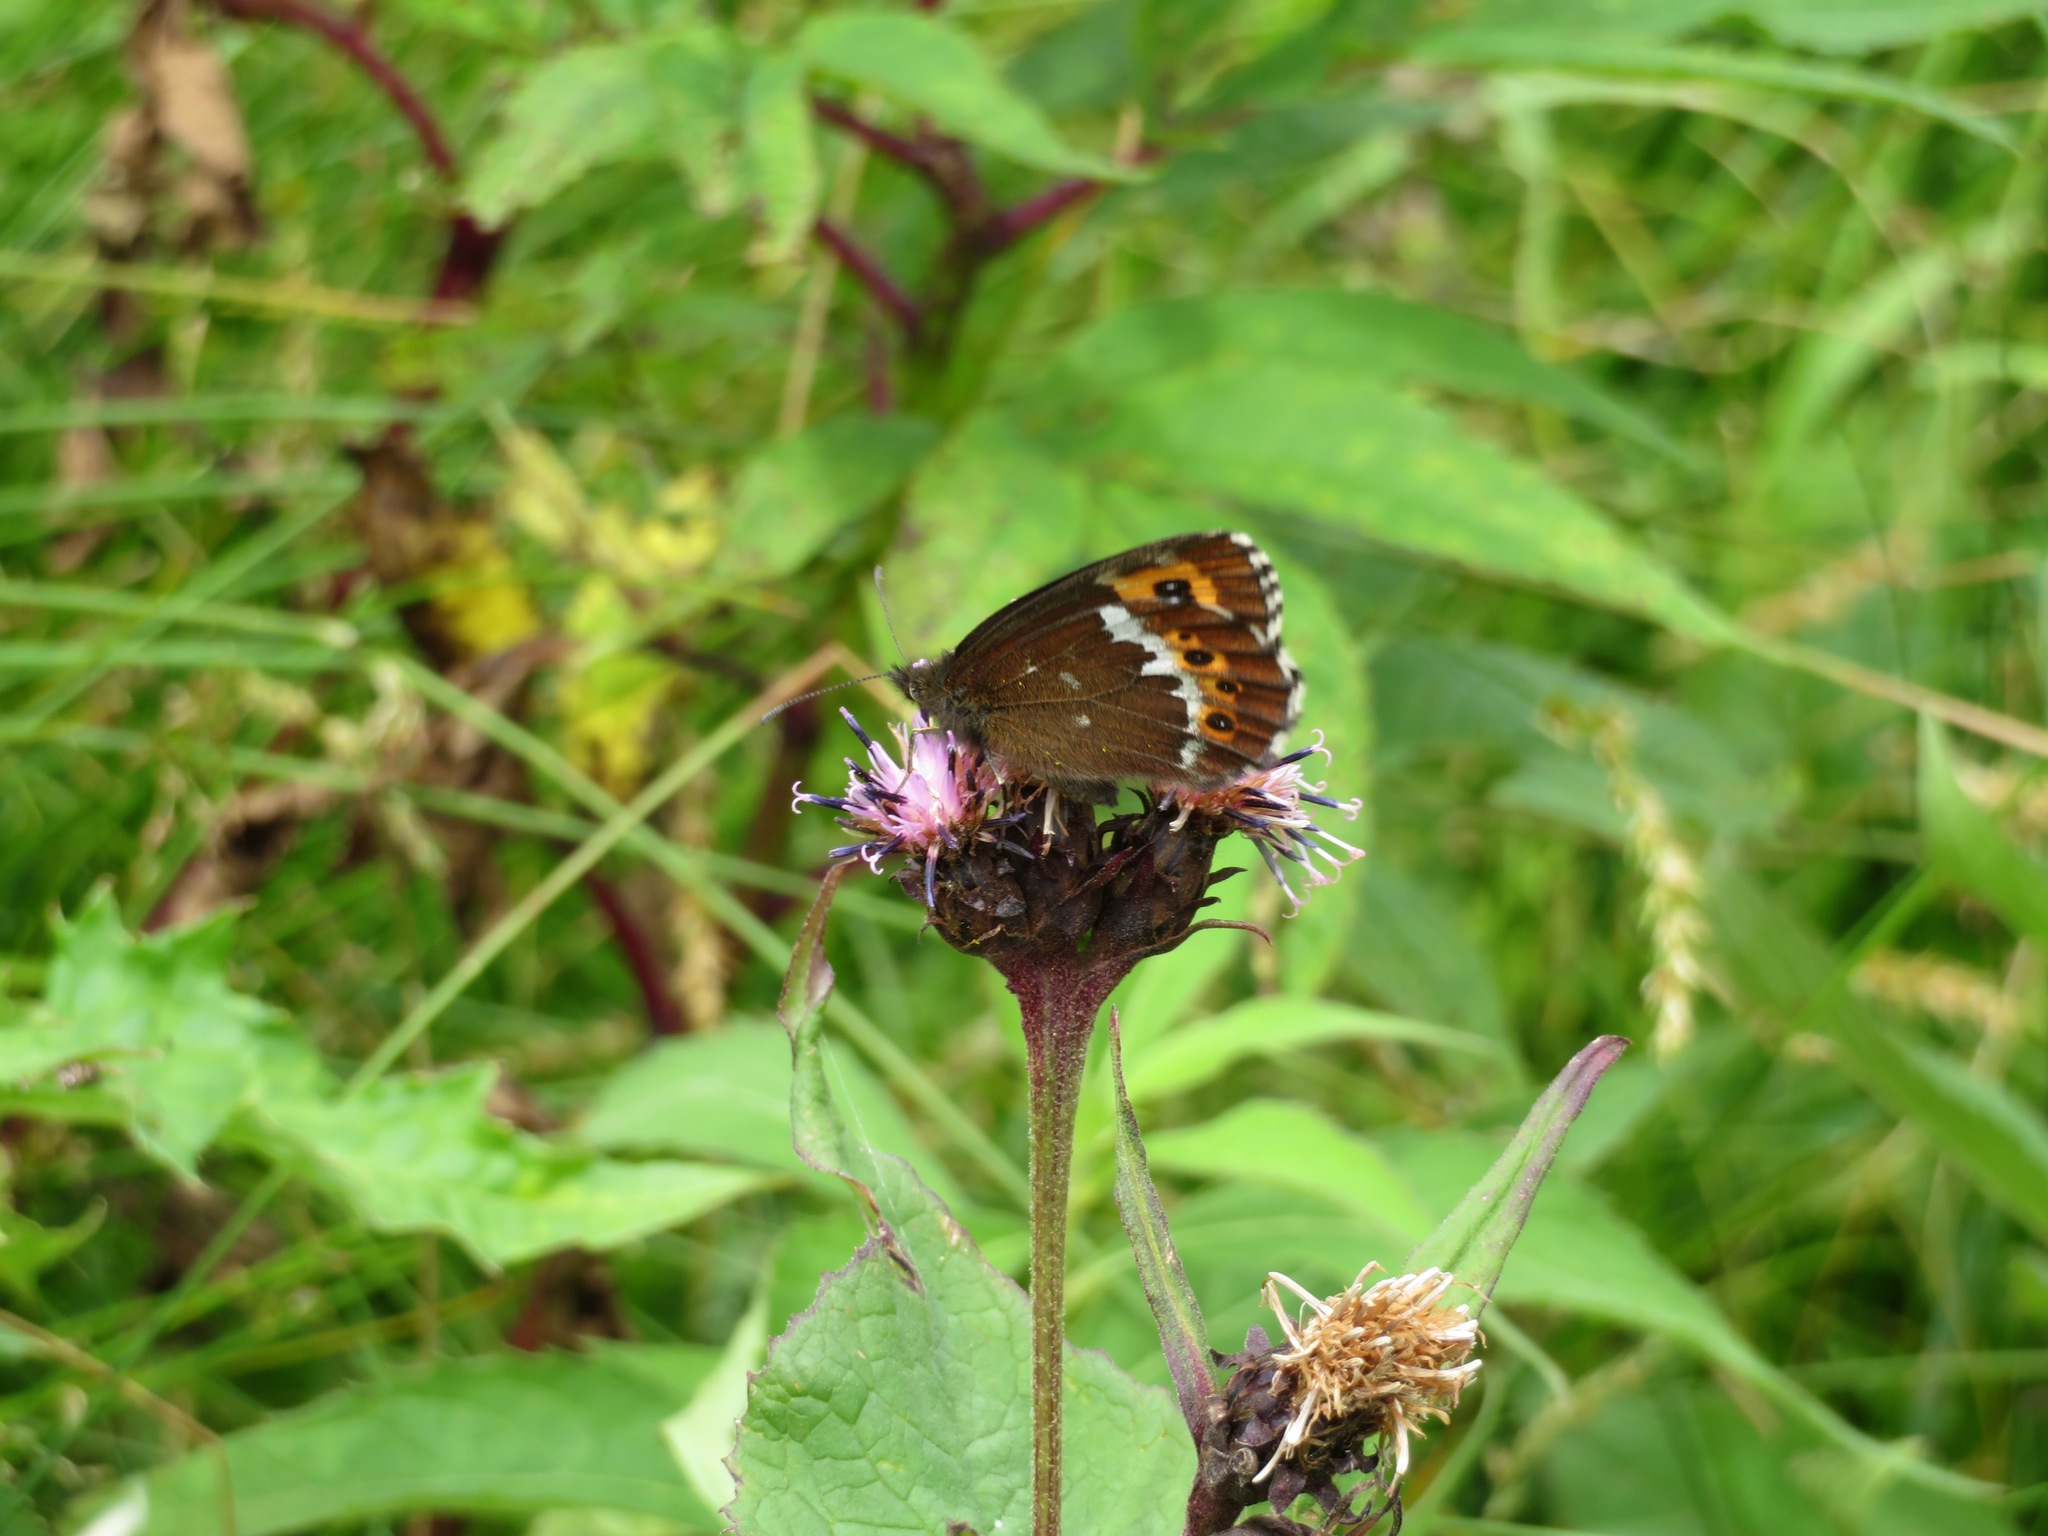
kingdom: Animalia
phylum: Arthropoda
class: Insecta
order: Lepidoptera
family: Nymphalidae
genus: Erebia
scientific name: Erebia ligea
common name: Arran brown
